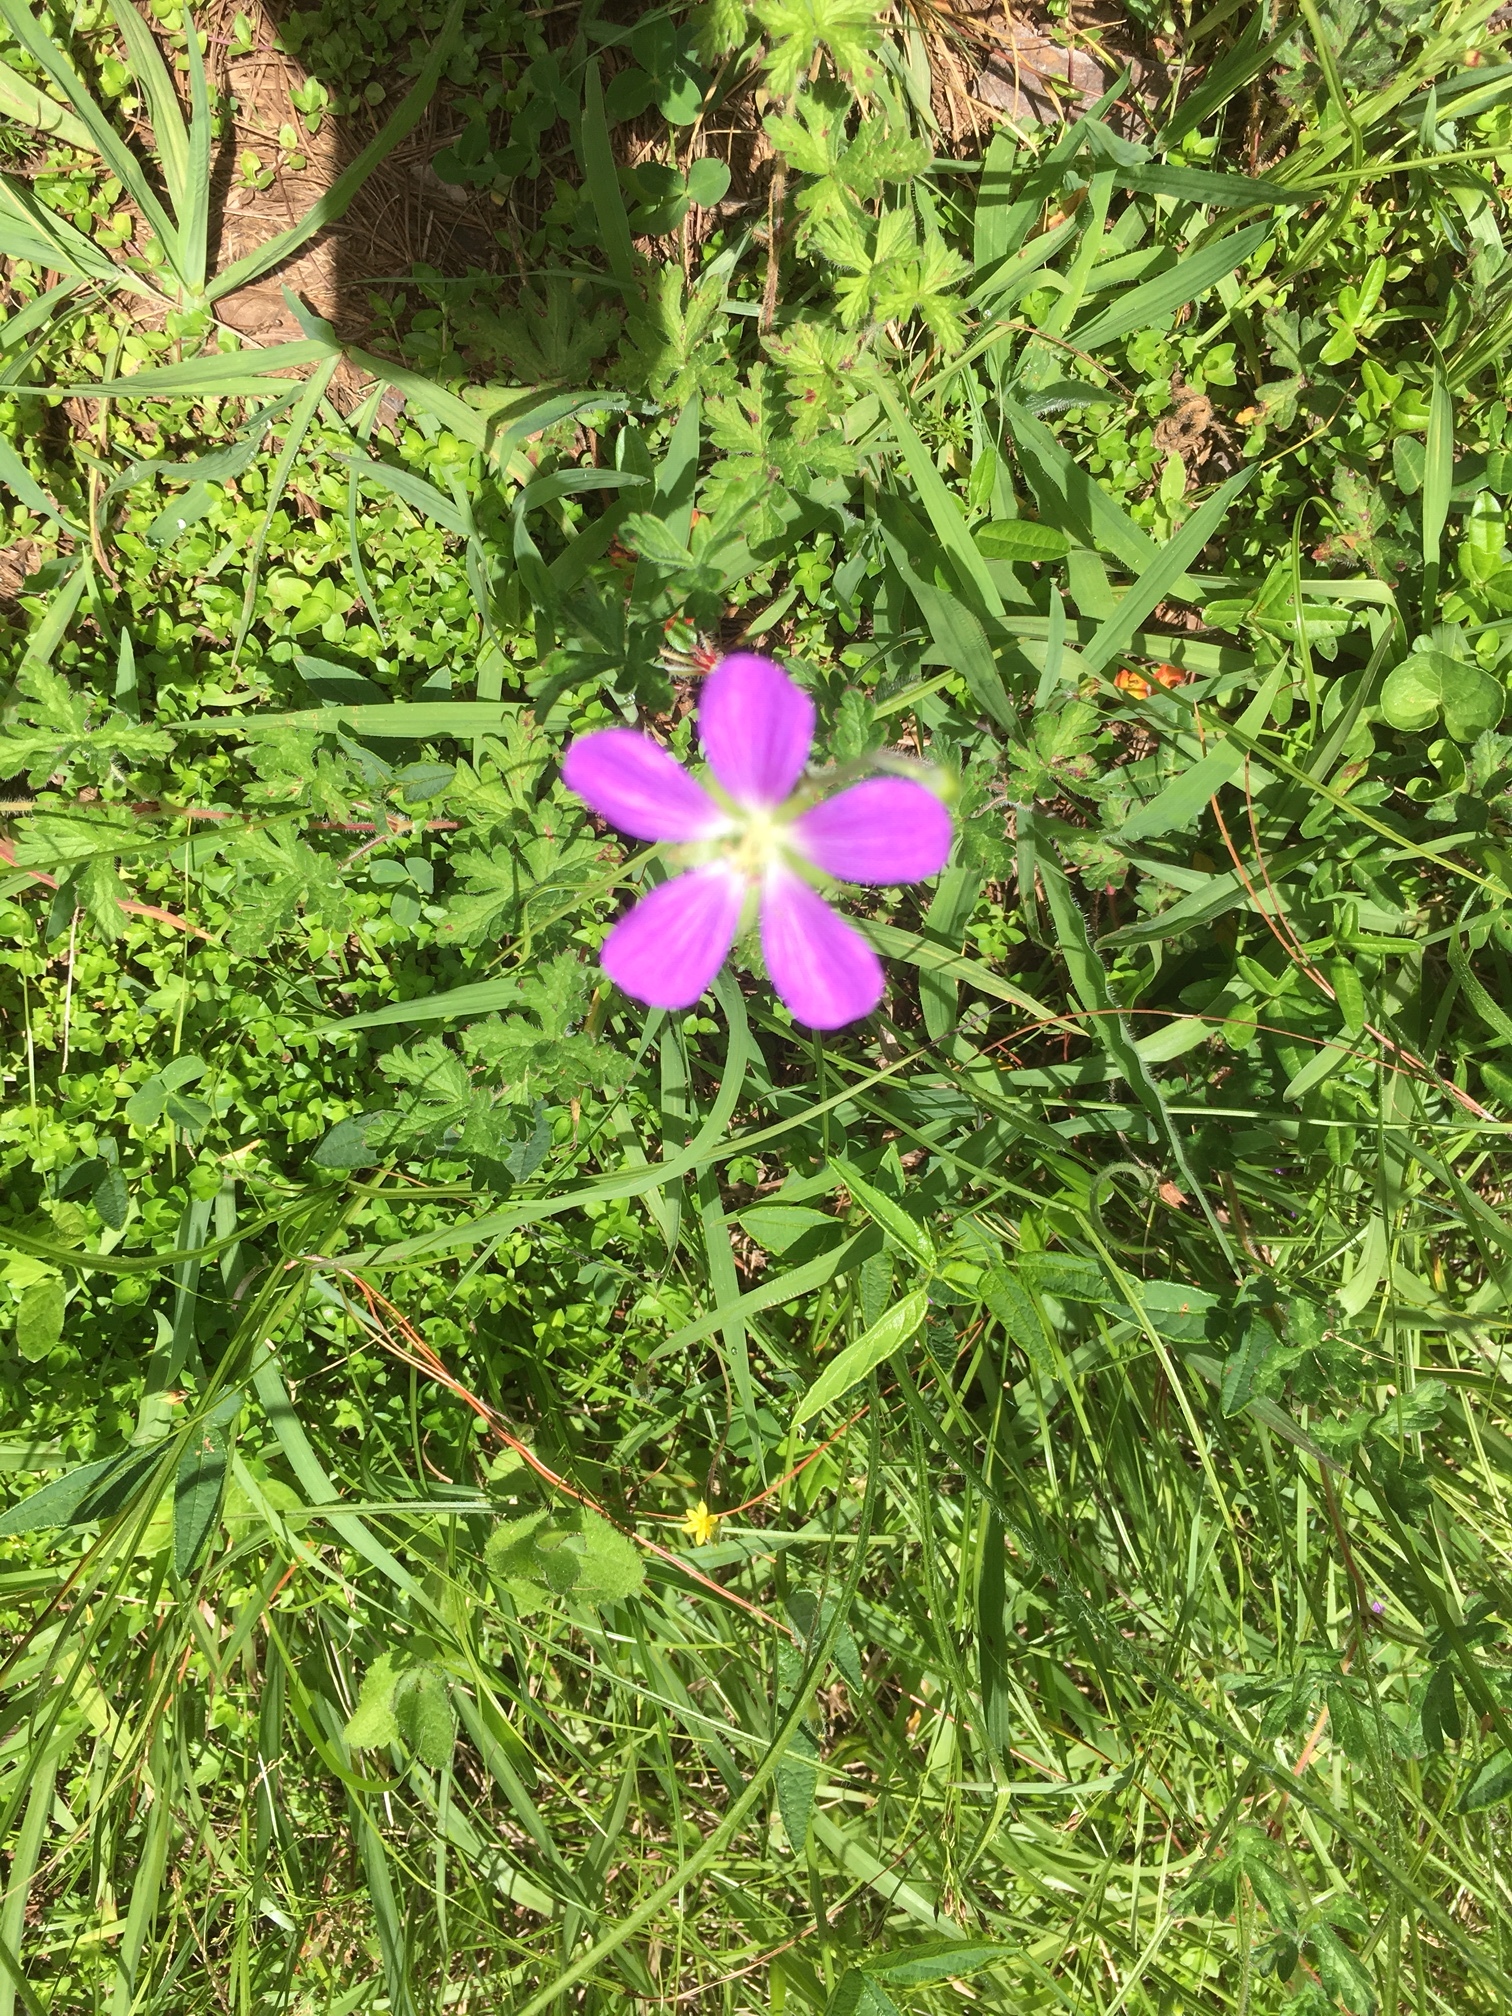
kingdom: Plantae
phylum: Tracheophyta
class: Magnoliopsida
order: Geraniales
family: Geraniaceae
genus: Geranium
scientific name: Geranium goldmanii
